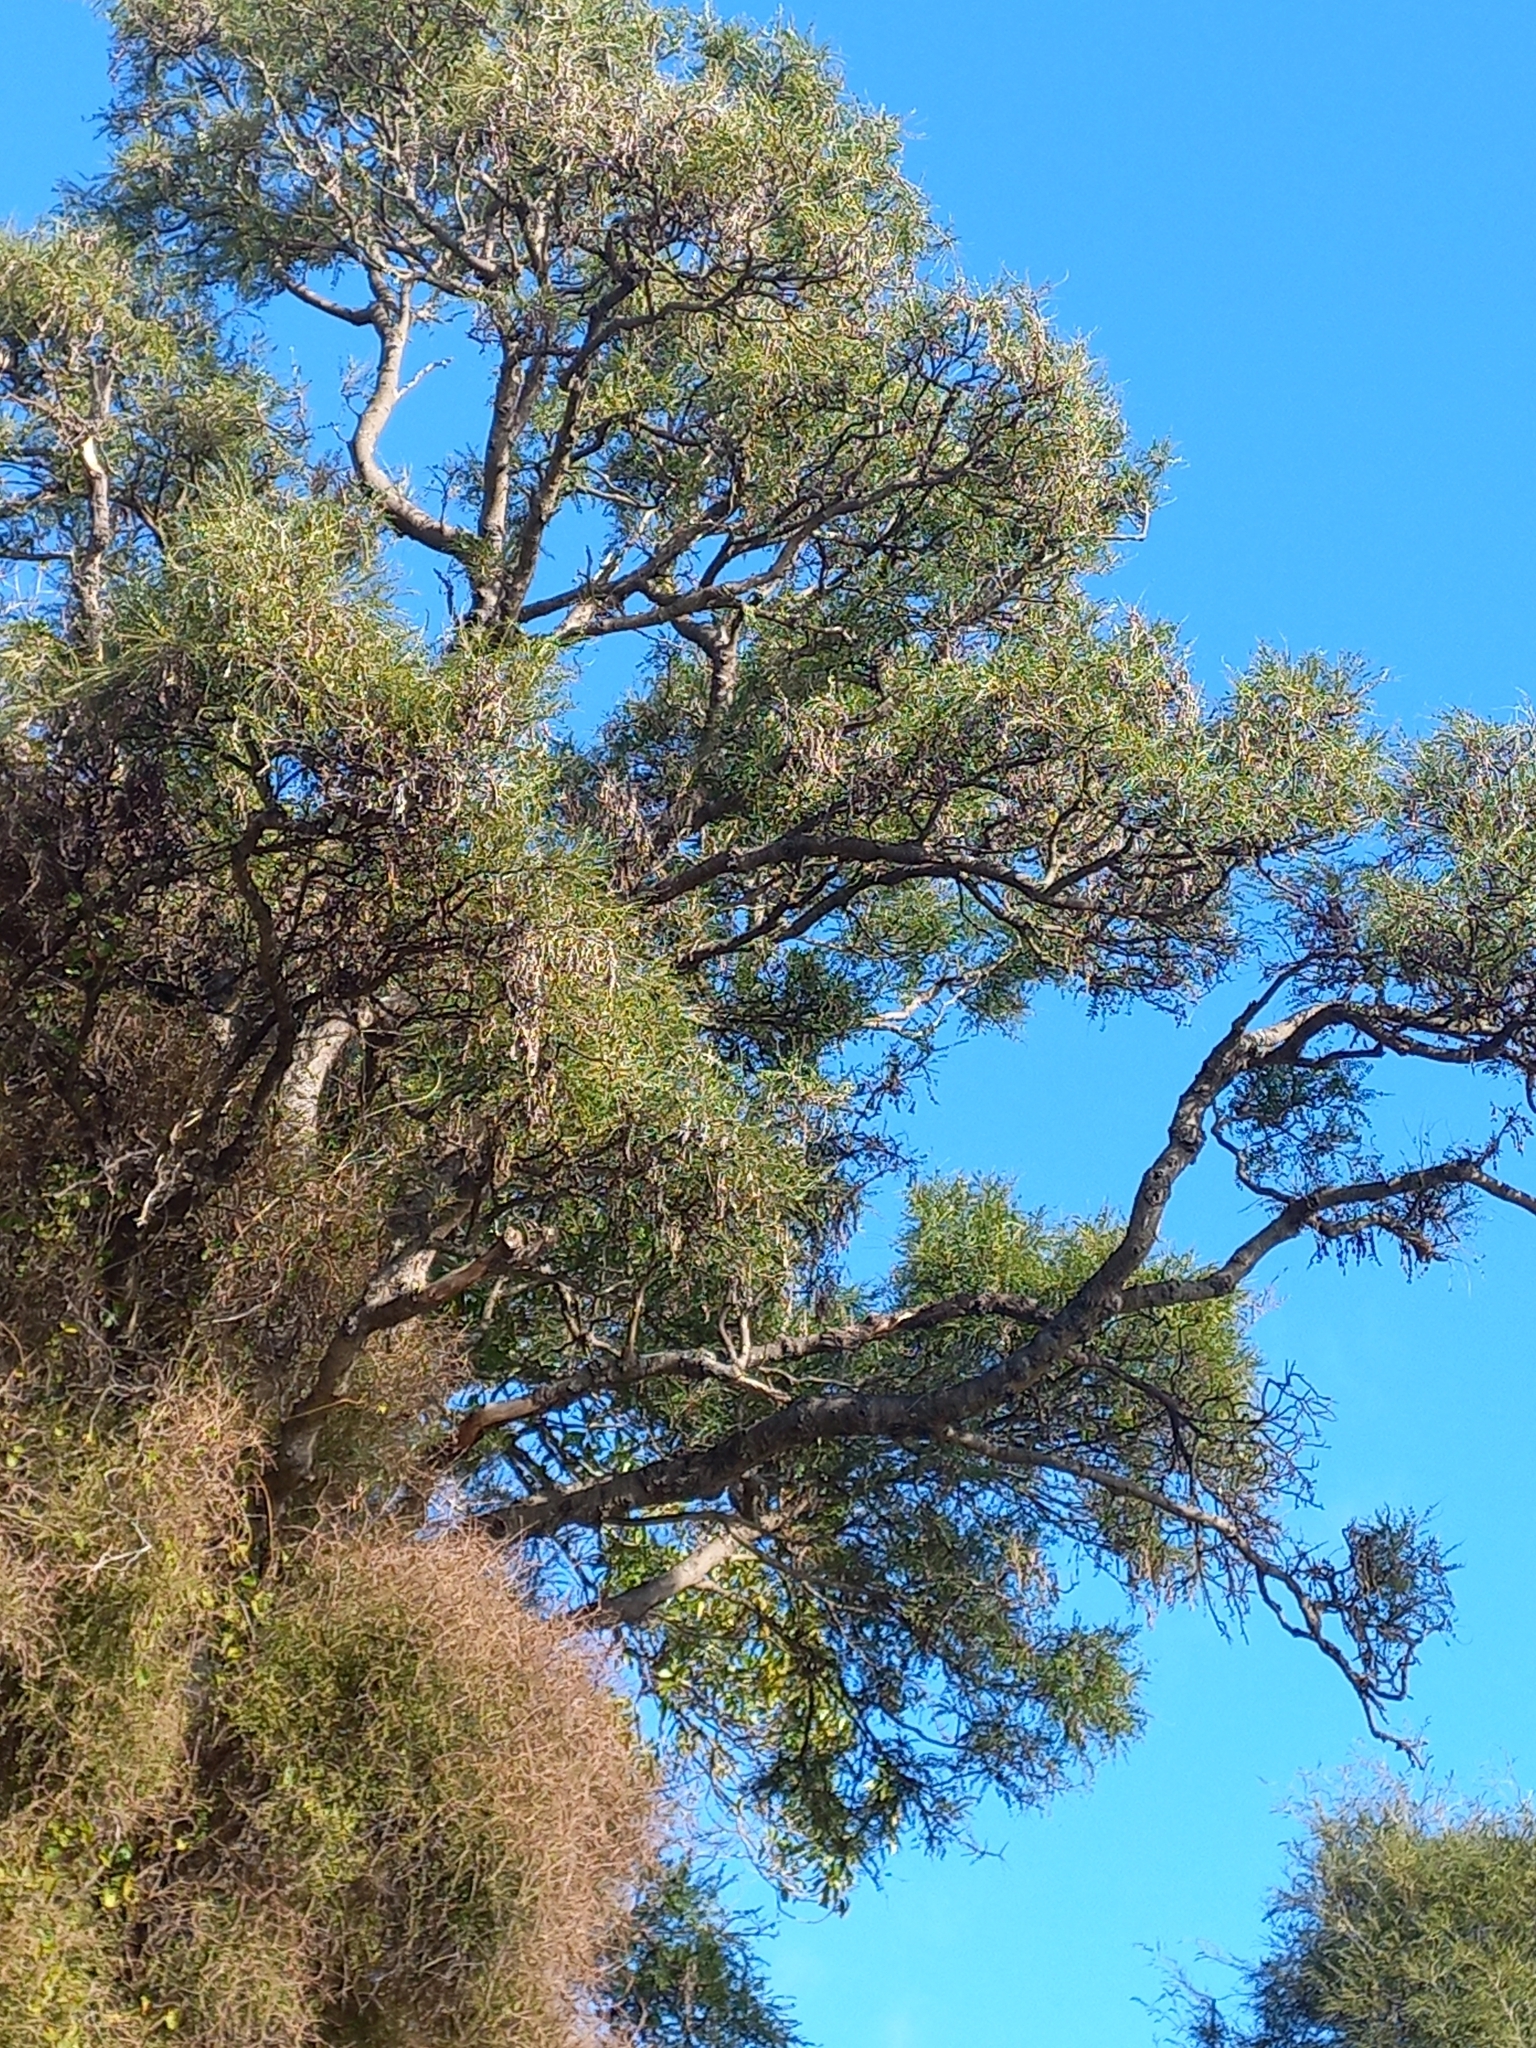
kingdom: Plantae
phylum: Tracheophyta
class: Magnoliopsida
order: Fabales
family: Fabaceae
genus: Sophora
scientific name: Sophora microphylla
